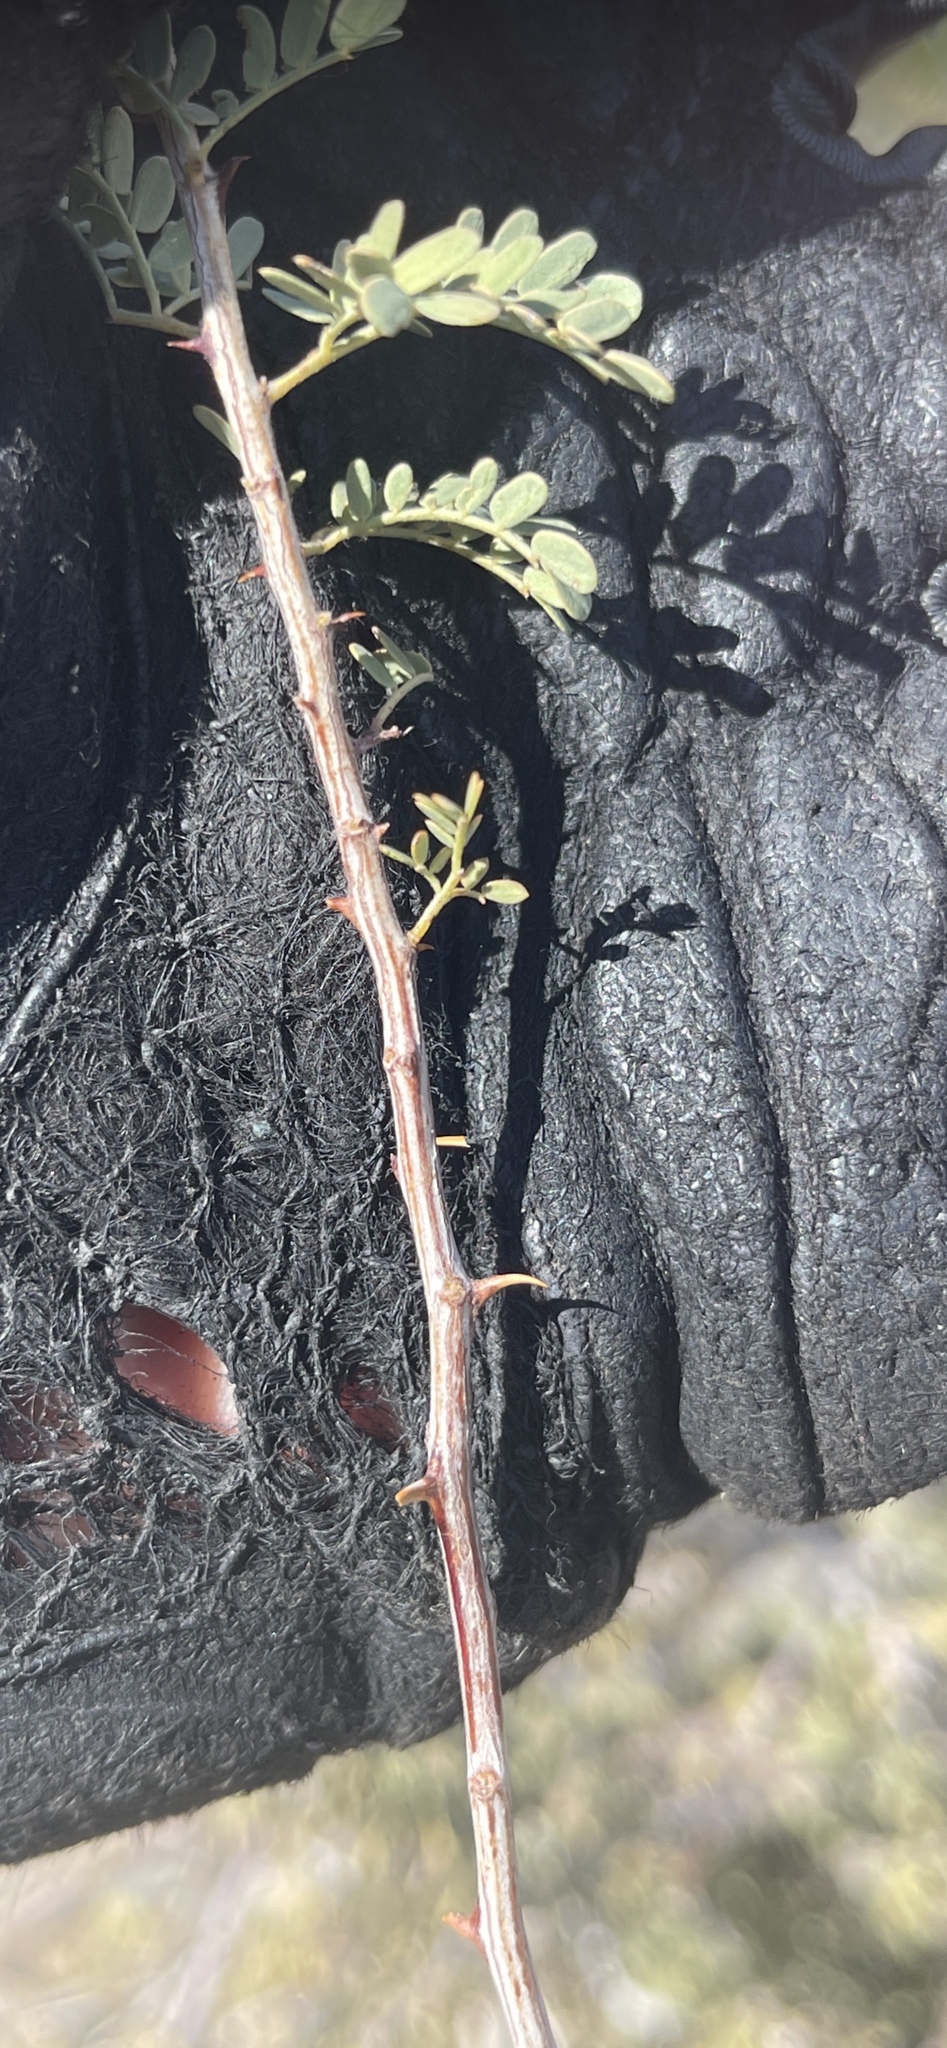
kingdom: Plantae
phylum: Tracheophyta
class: Magnoliopsida
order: Fabales
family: Fabaceae
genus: Senegalia
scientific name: Senegalia greggii
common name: Texas-mimosa
